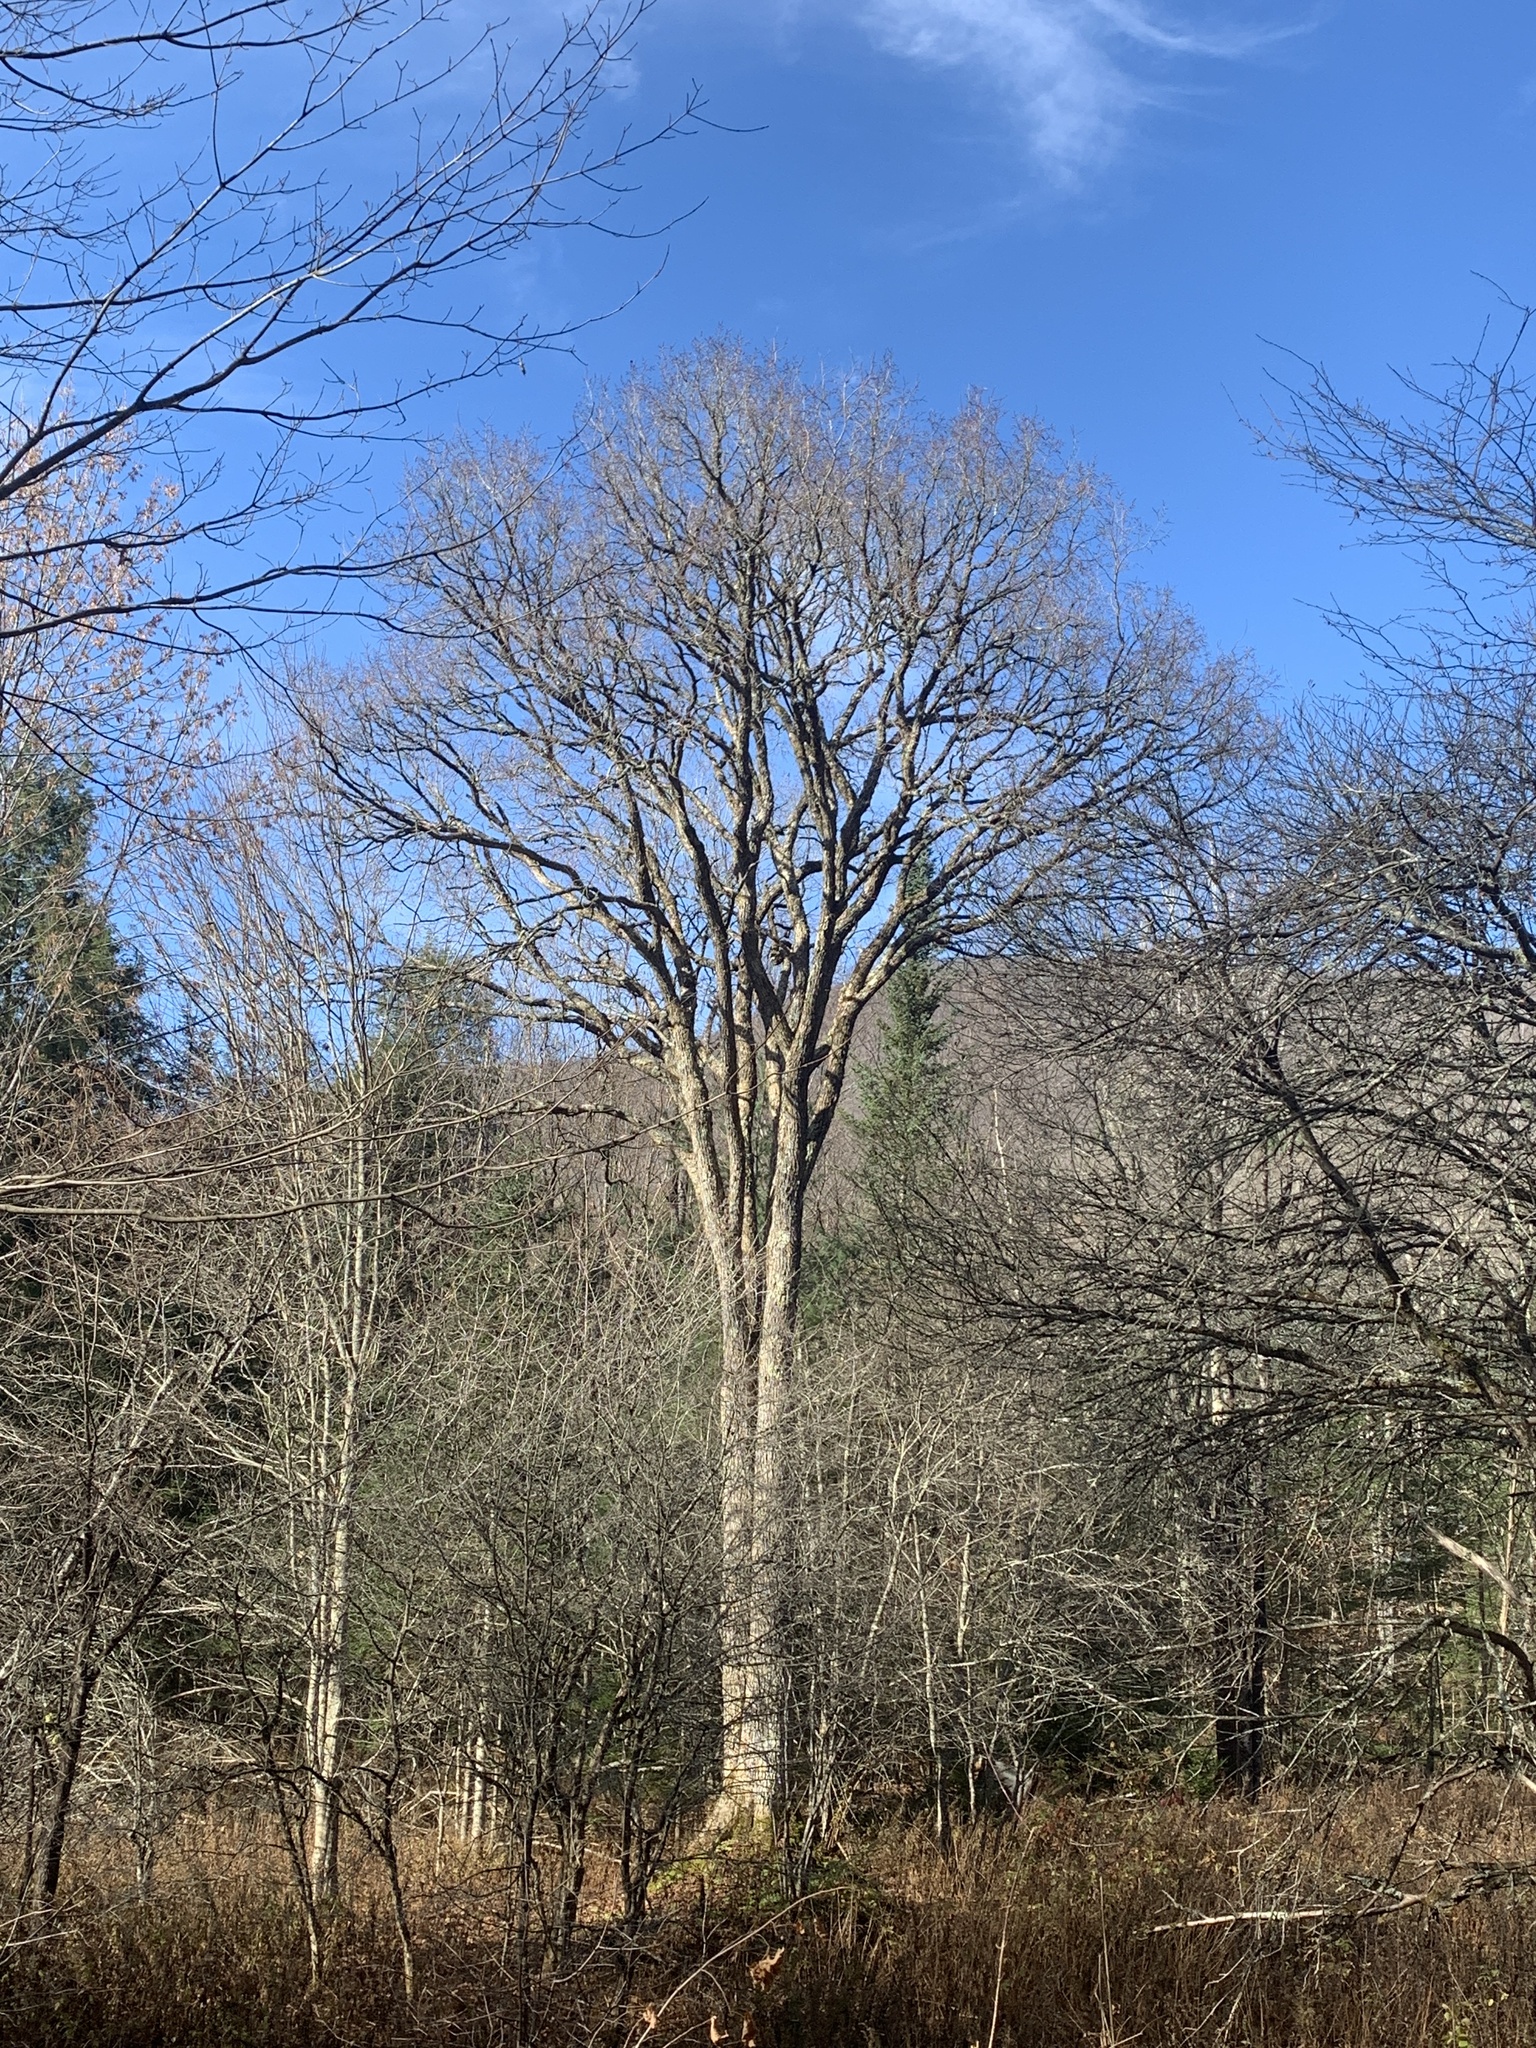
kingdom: Plantae
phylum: Tracheophyta
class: Magnoliopsida
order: Rosales
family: Ulmaceae
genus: Ulmus
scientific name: Ulmus americana
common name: American elm
